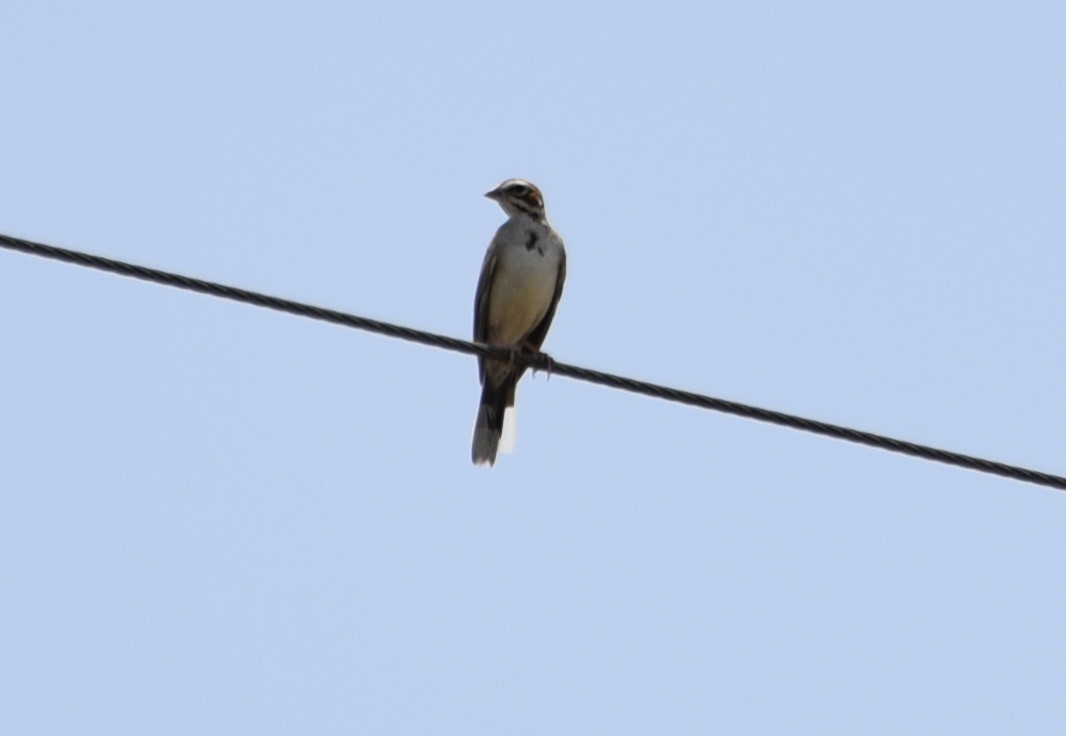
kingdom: Animalia
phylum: Chordata
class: Aves
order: Passeriformes
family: Passerellidae
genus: Chondestes
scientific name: Chondestes grammacus
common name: Lark sparrow
